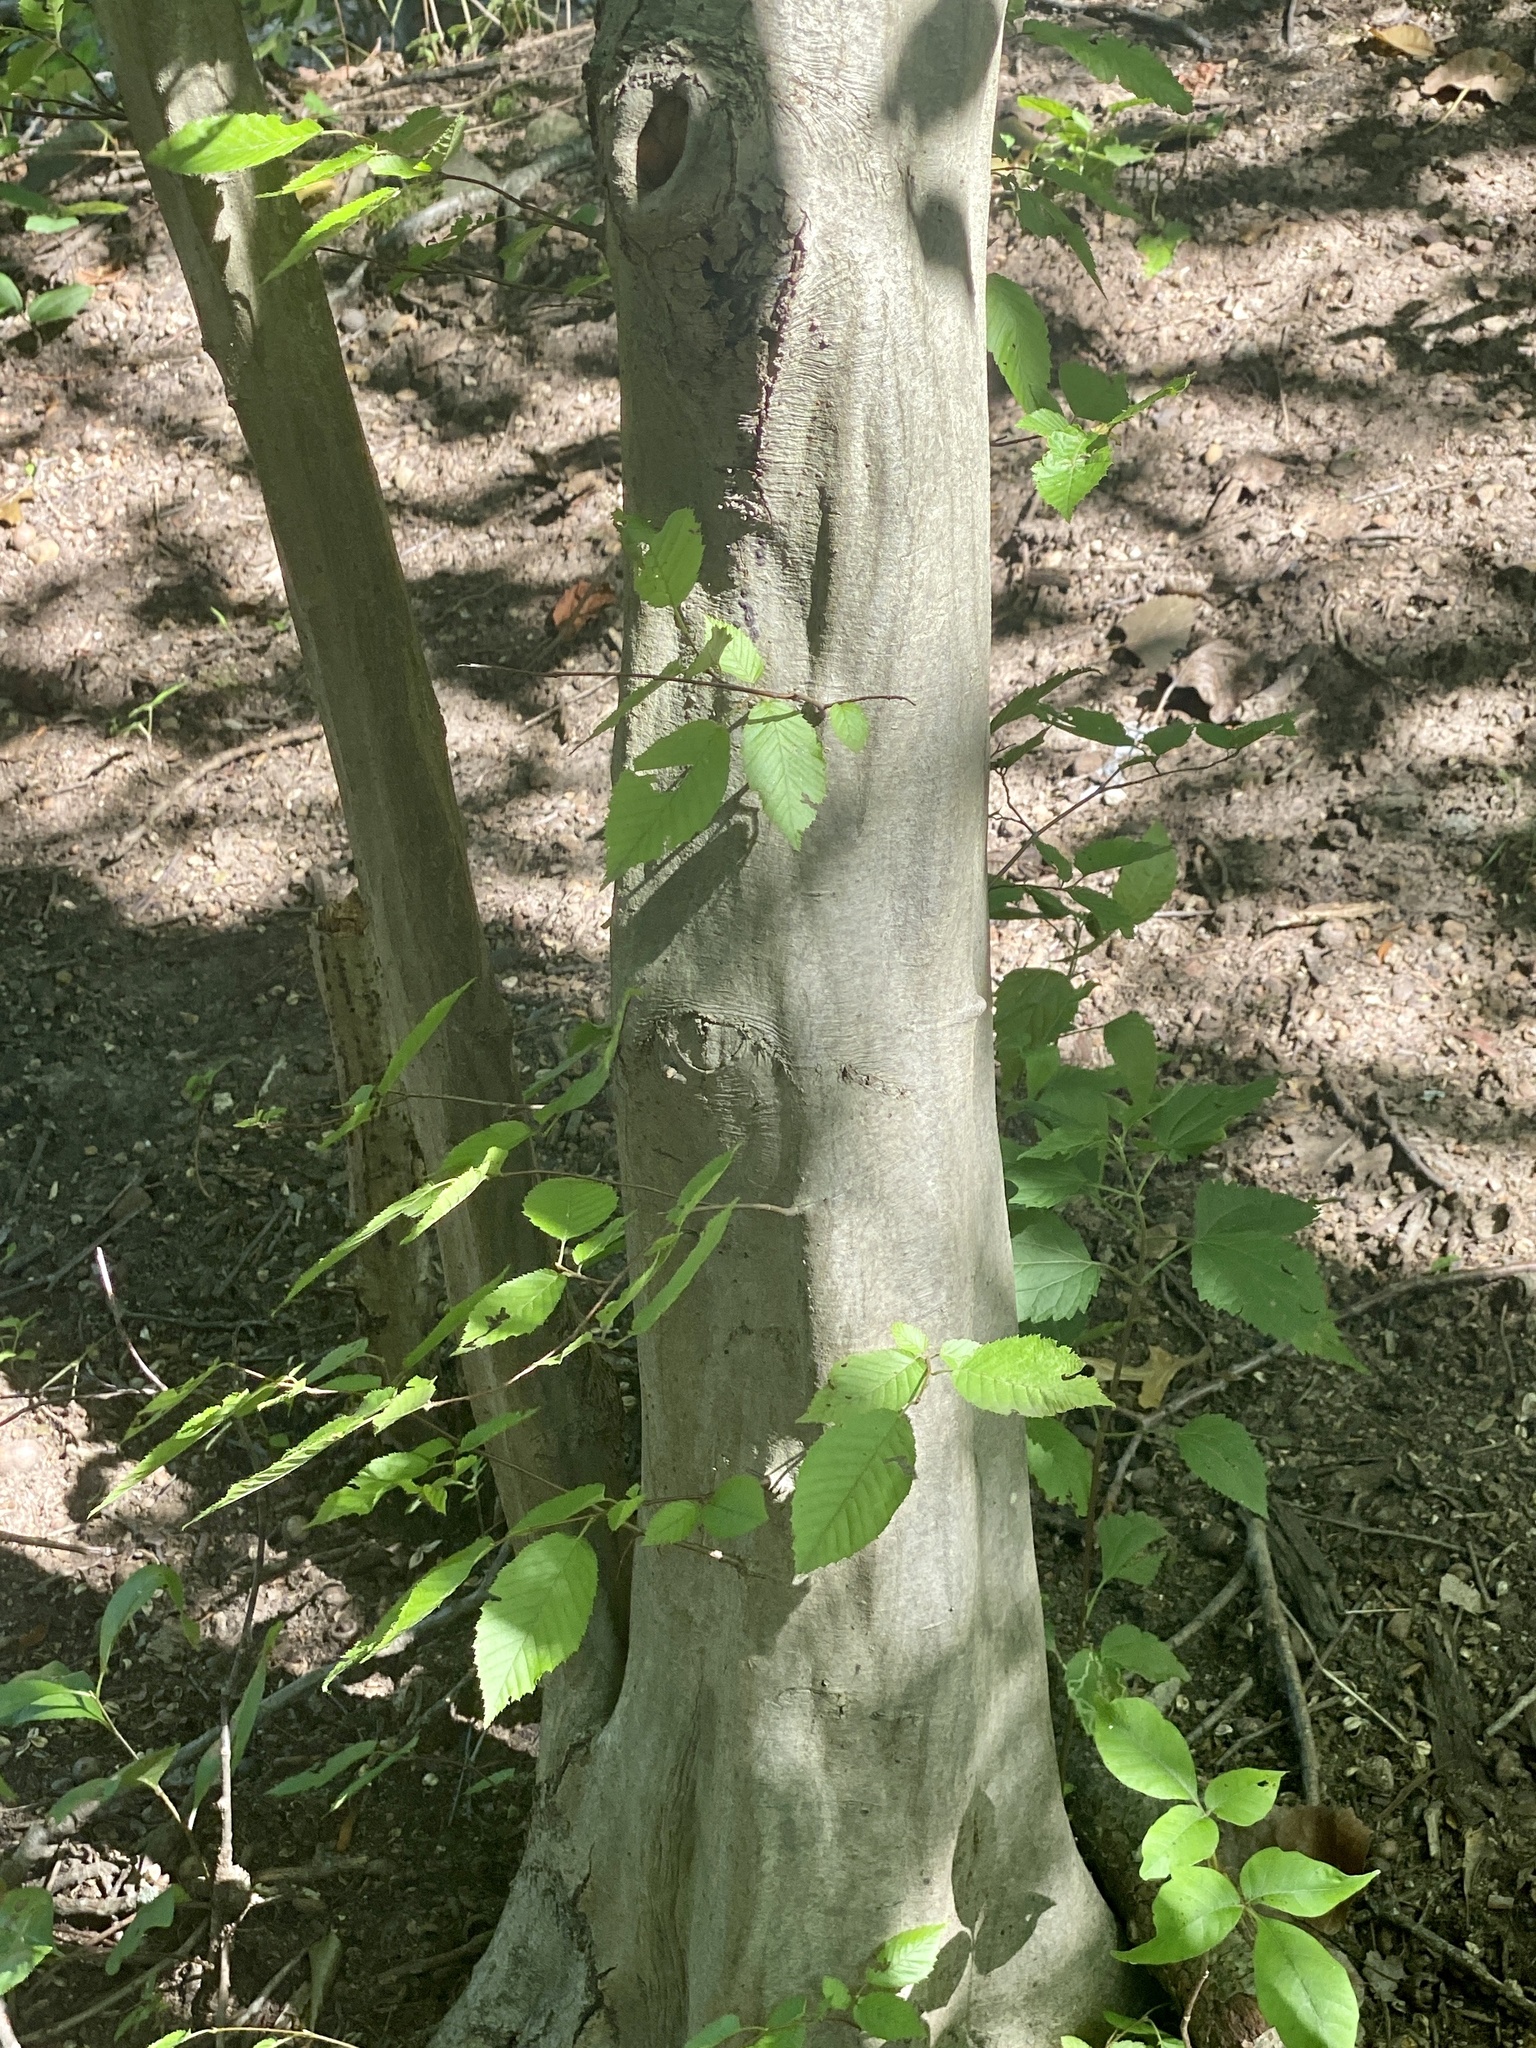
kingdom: Plantae
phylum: Tracheophyta
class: Magnoliopsida
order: Fagales
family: Betulaceae
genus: Carpinus
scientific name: Carpinus caroliniana
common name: American hornbeam
